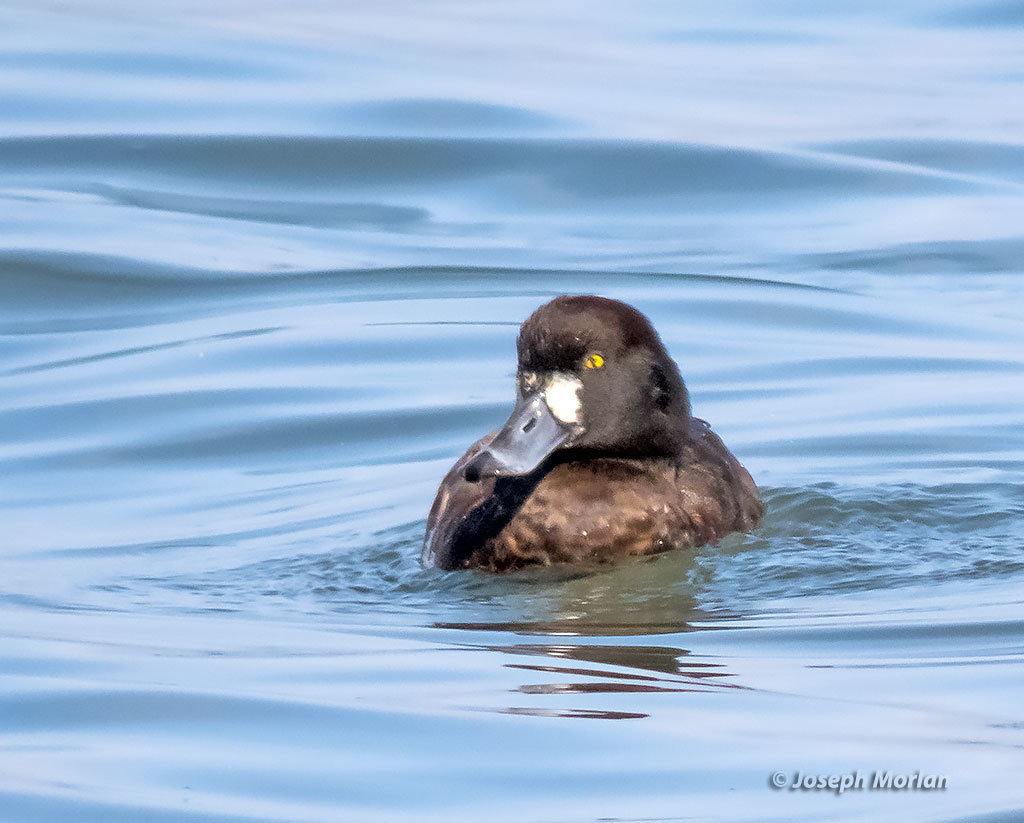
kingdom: Animalia
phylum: Chordata
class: Aves
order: Anseriformes
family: Anatidae
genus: Aythya
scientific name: Aythya marila
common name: Greater scaup
